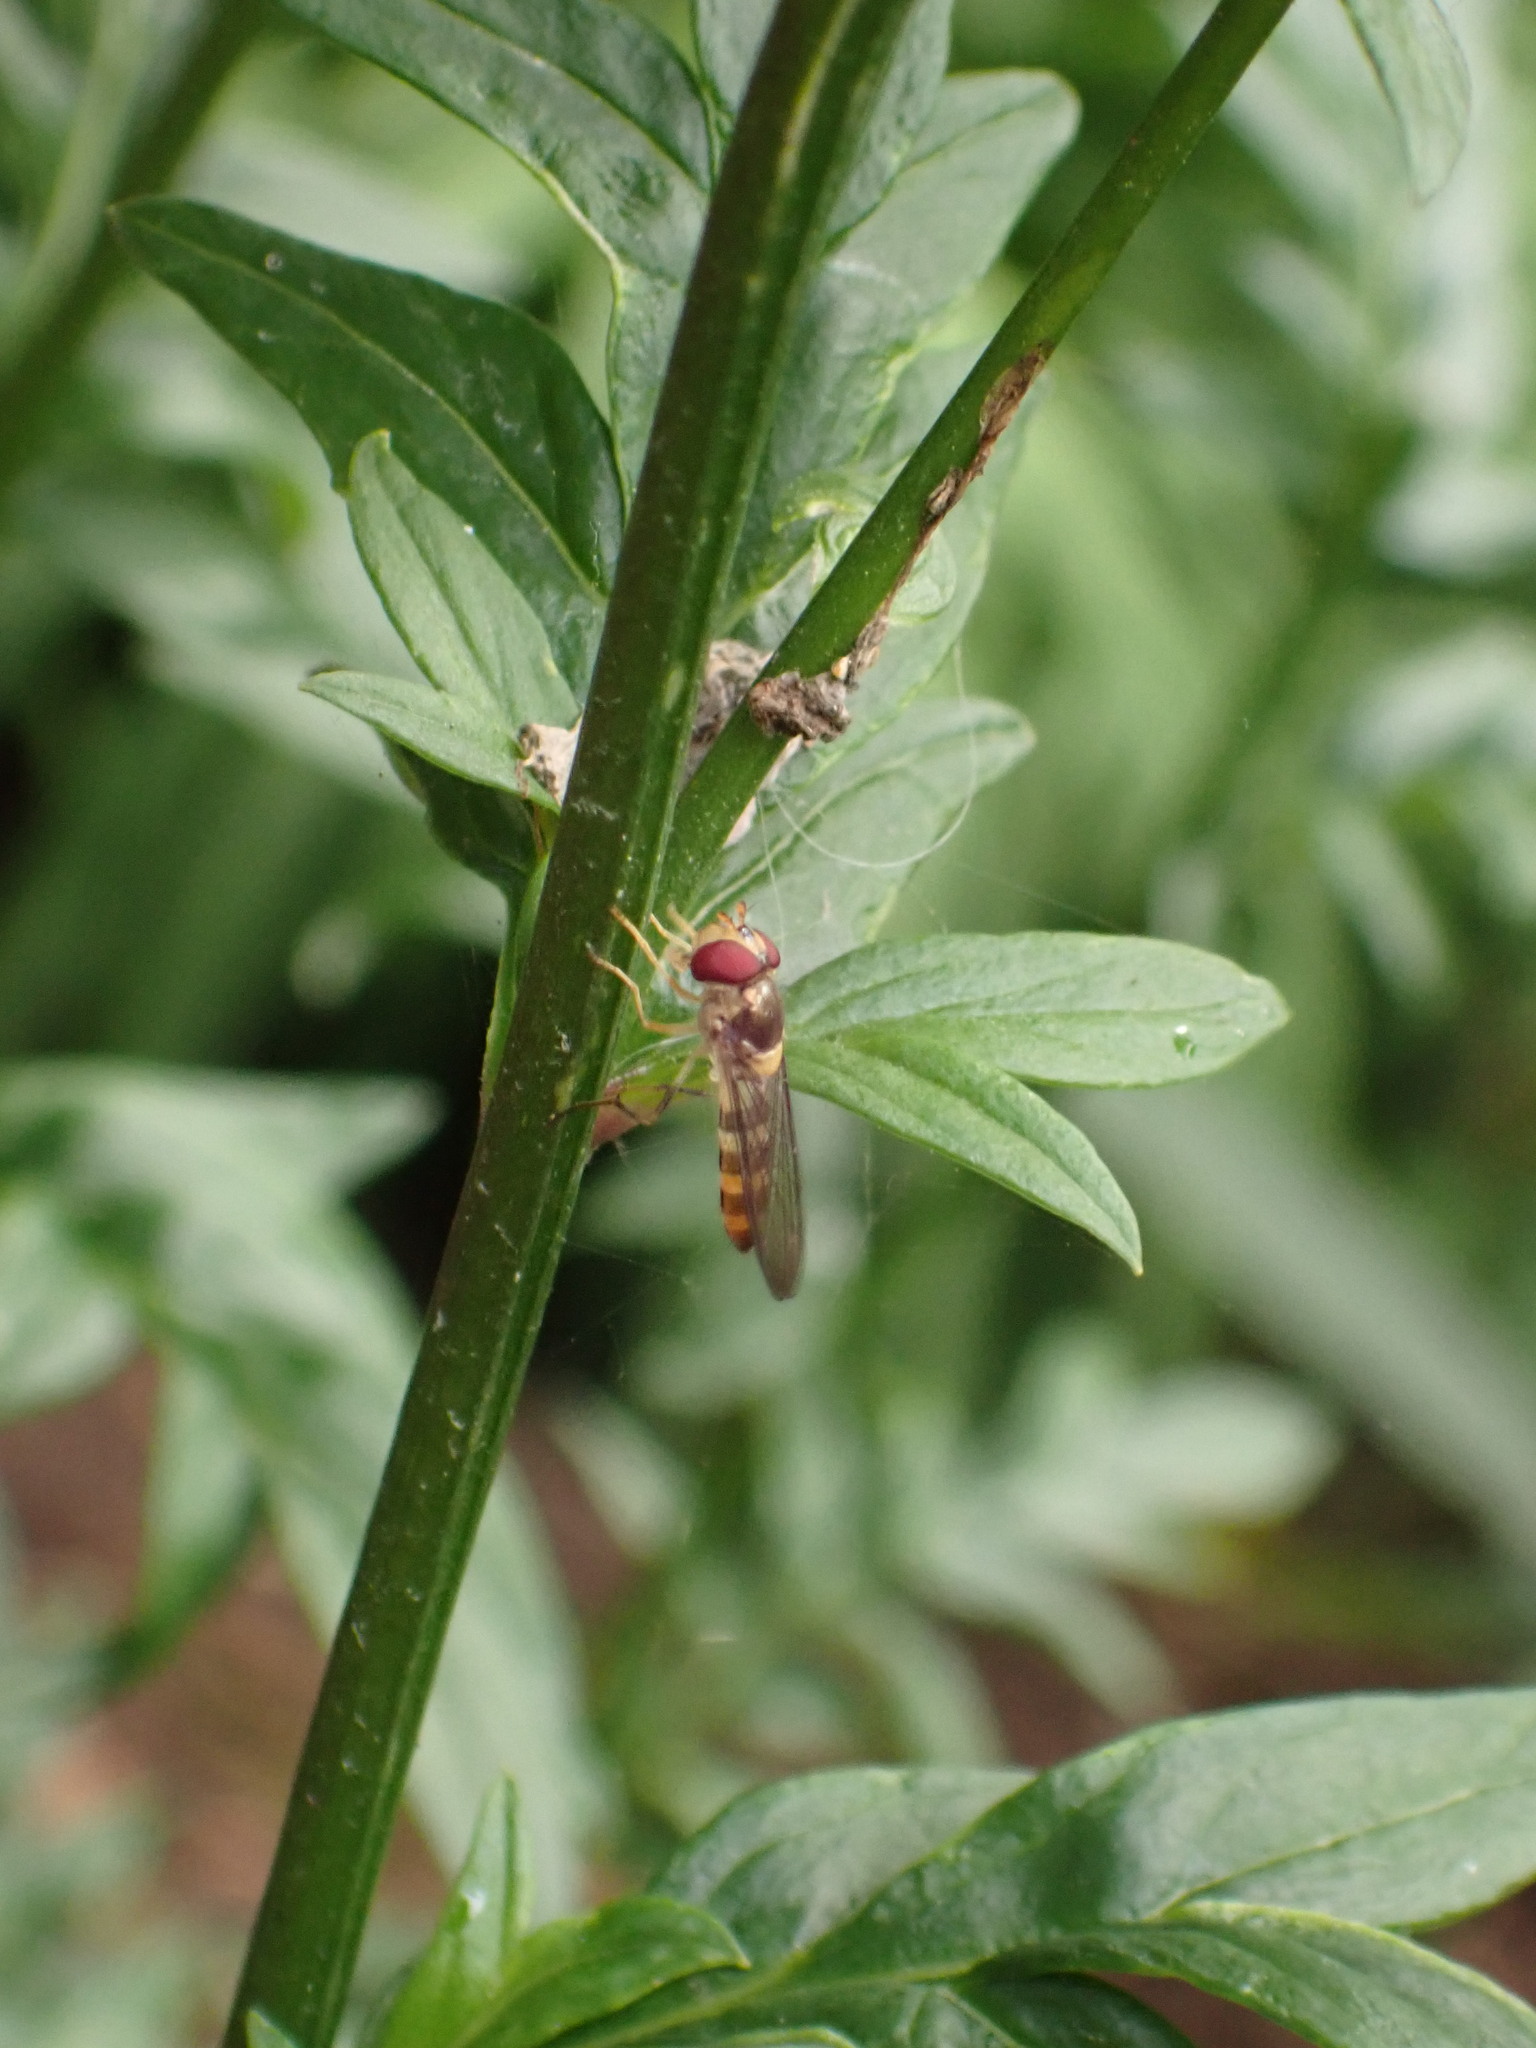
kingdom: Animalia
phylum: Arthropoda
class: Insecta
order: Diptera
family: Syrphidae
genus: Meliscaeva
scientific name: Meliscaeva cinctella
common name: American thintail fly
